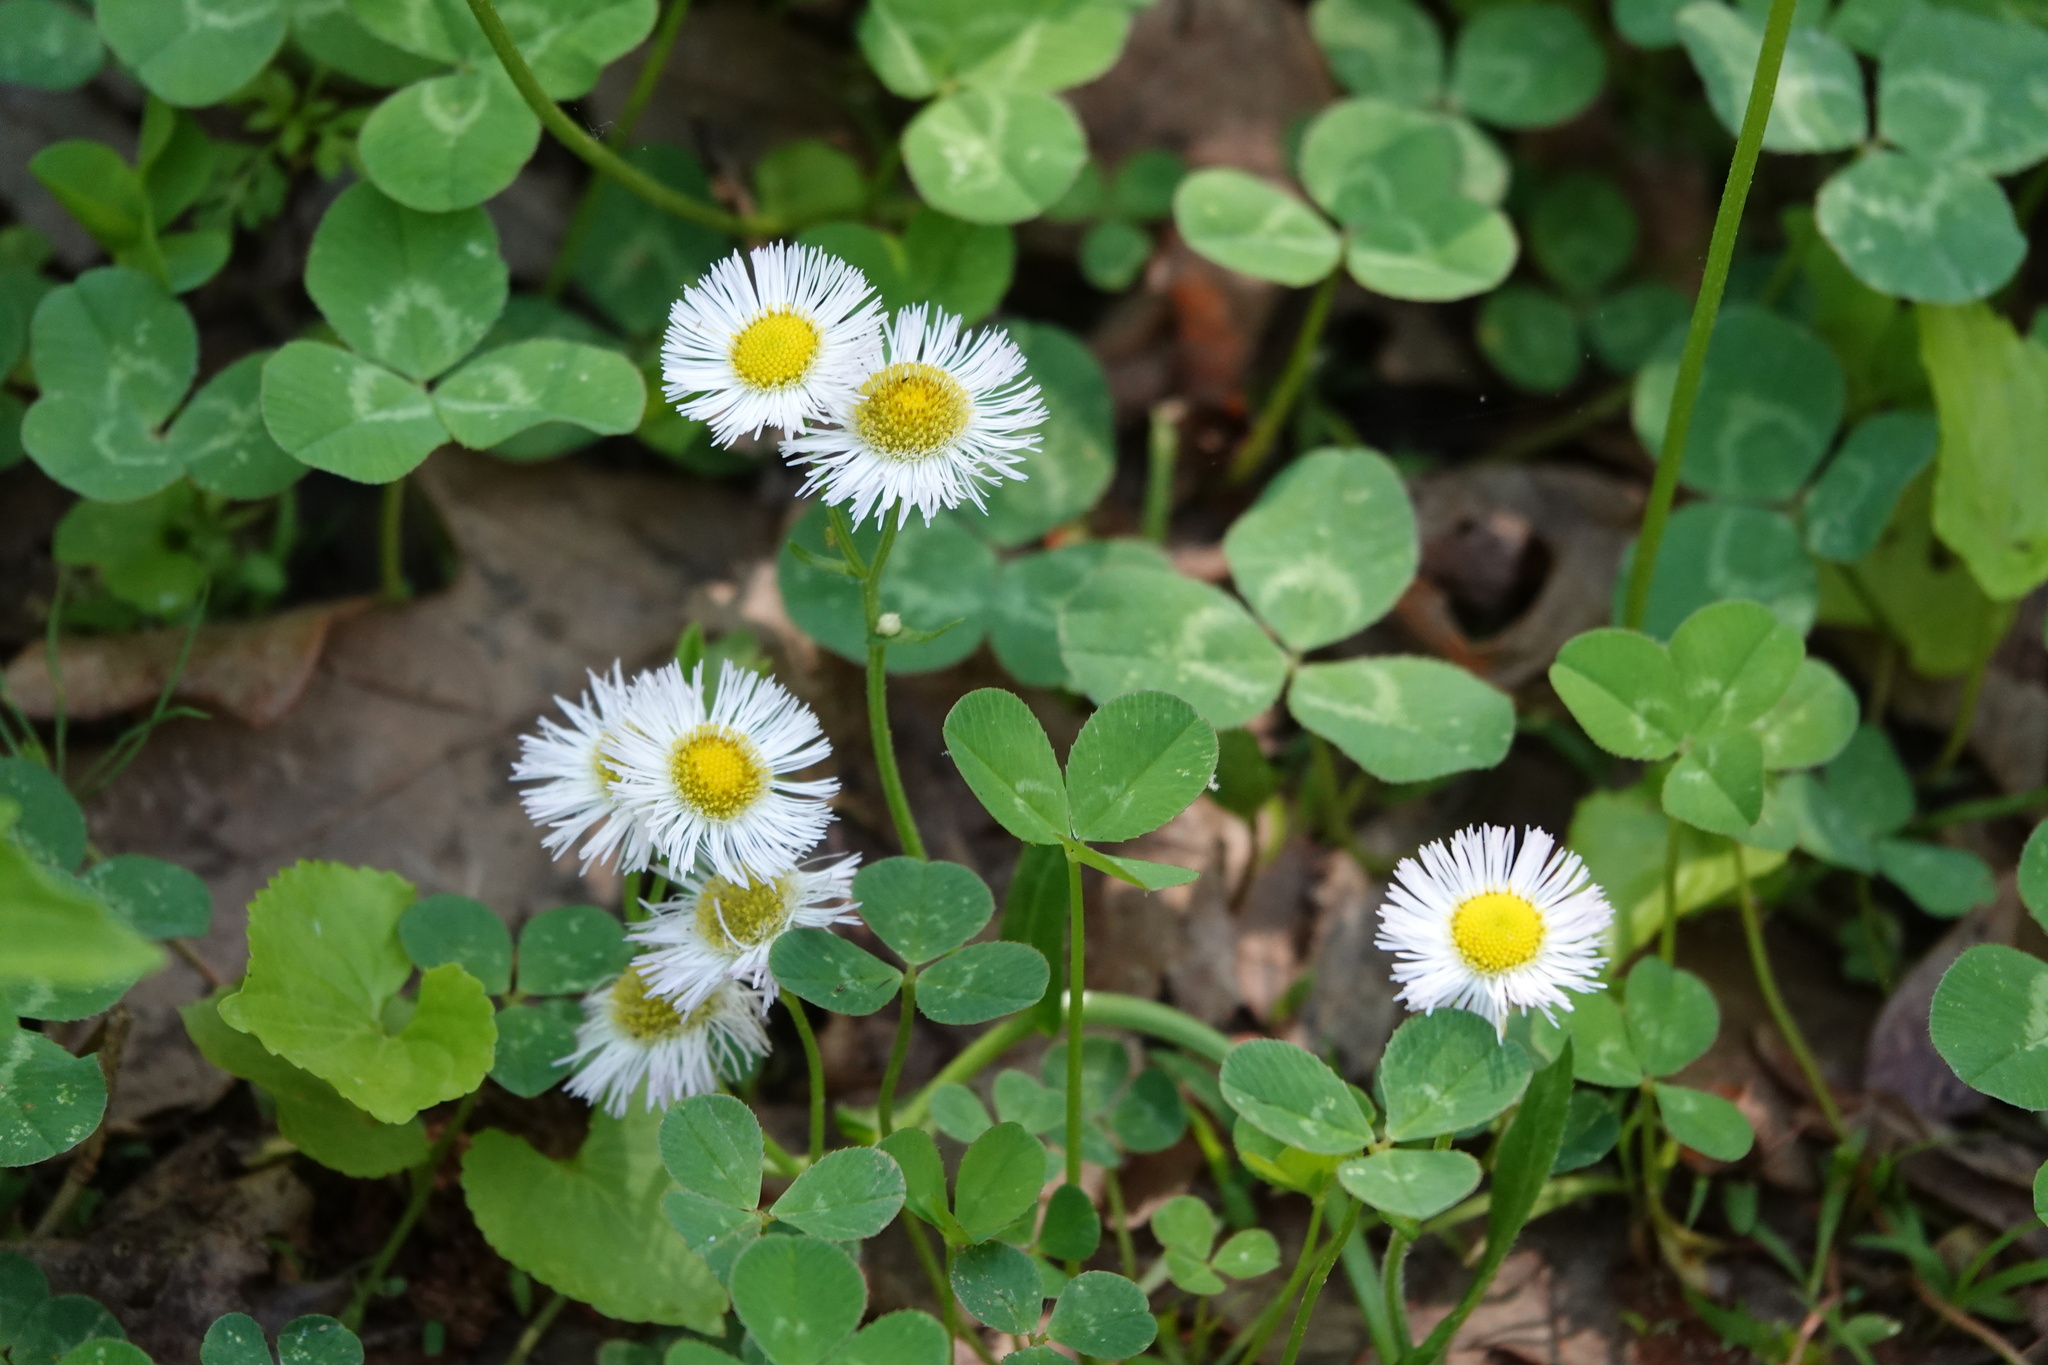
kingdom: Plantae
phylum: Tracheophyta
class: Magnoliopsida
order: Asterales
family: Asteraceae
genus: Erigeron
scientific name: Erigeron philadelphicus
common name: Robin's-plantain
